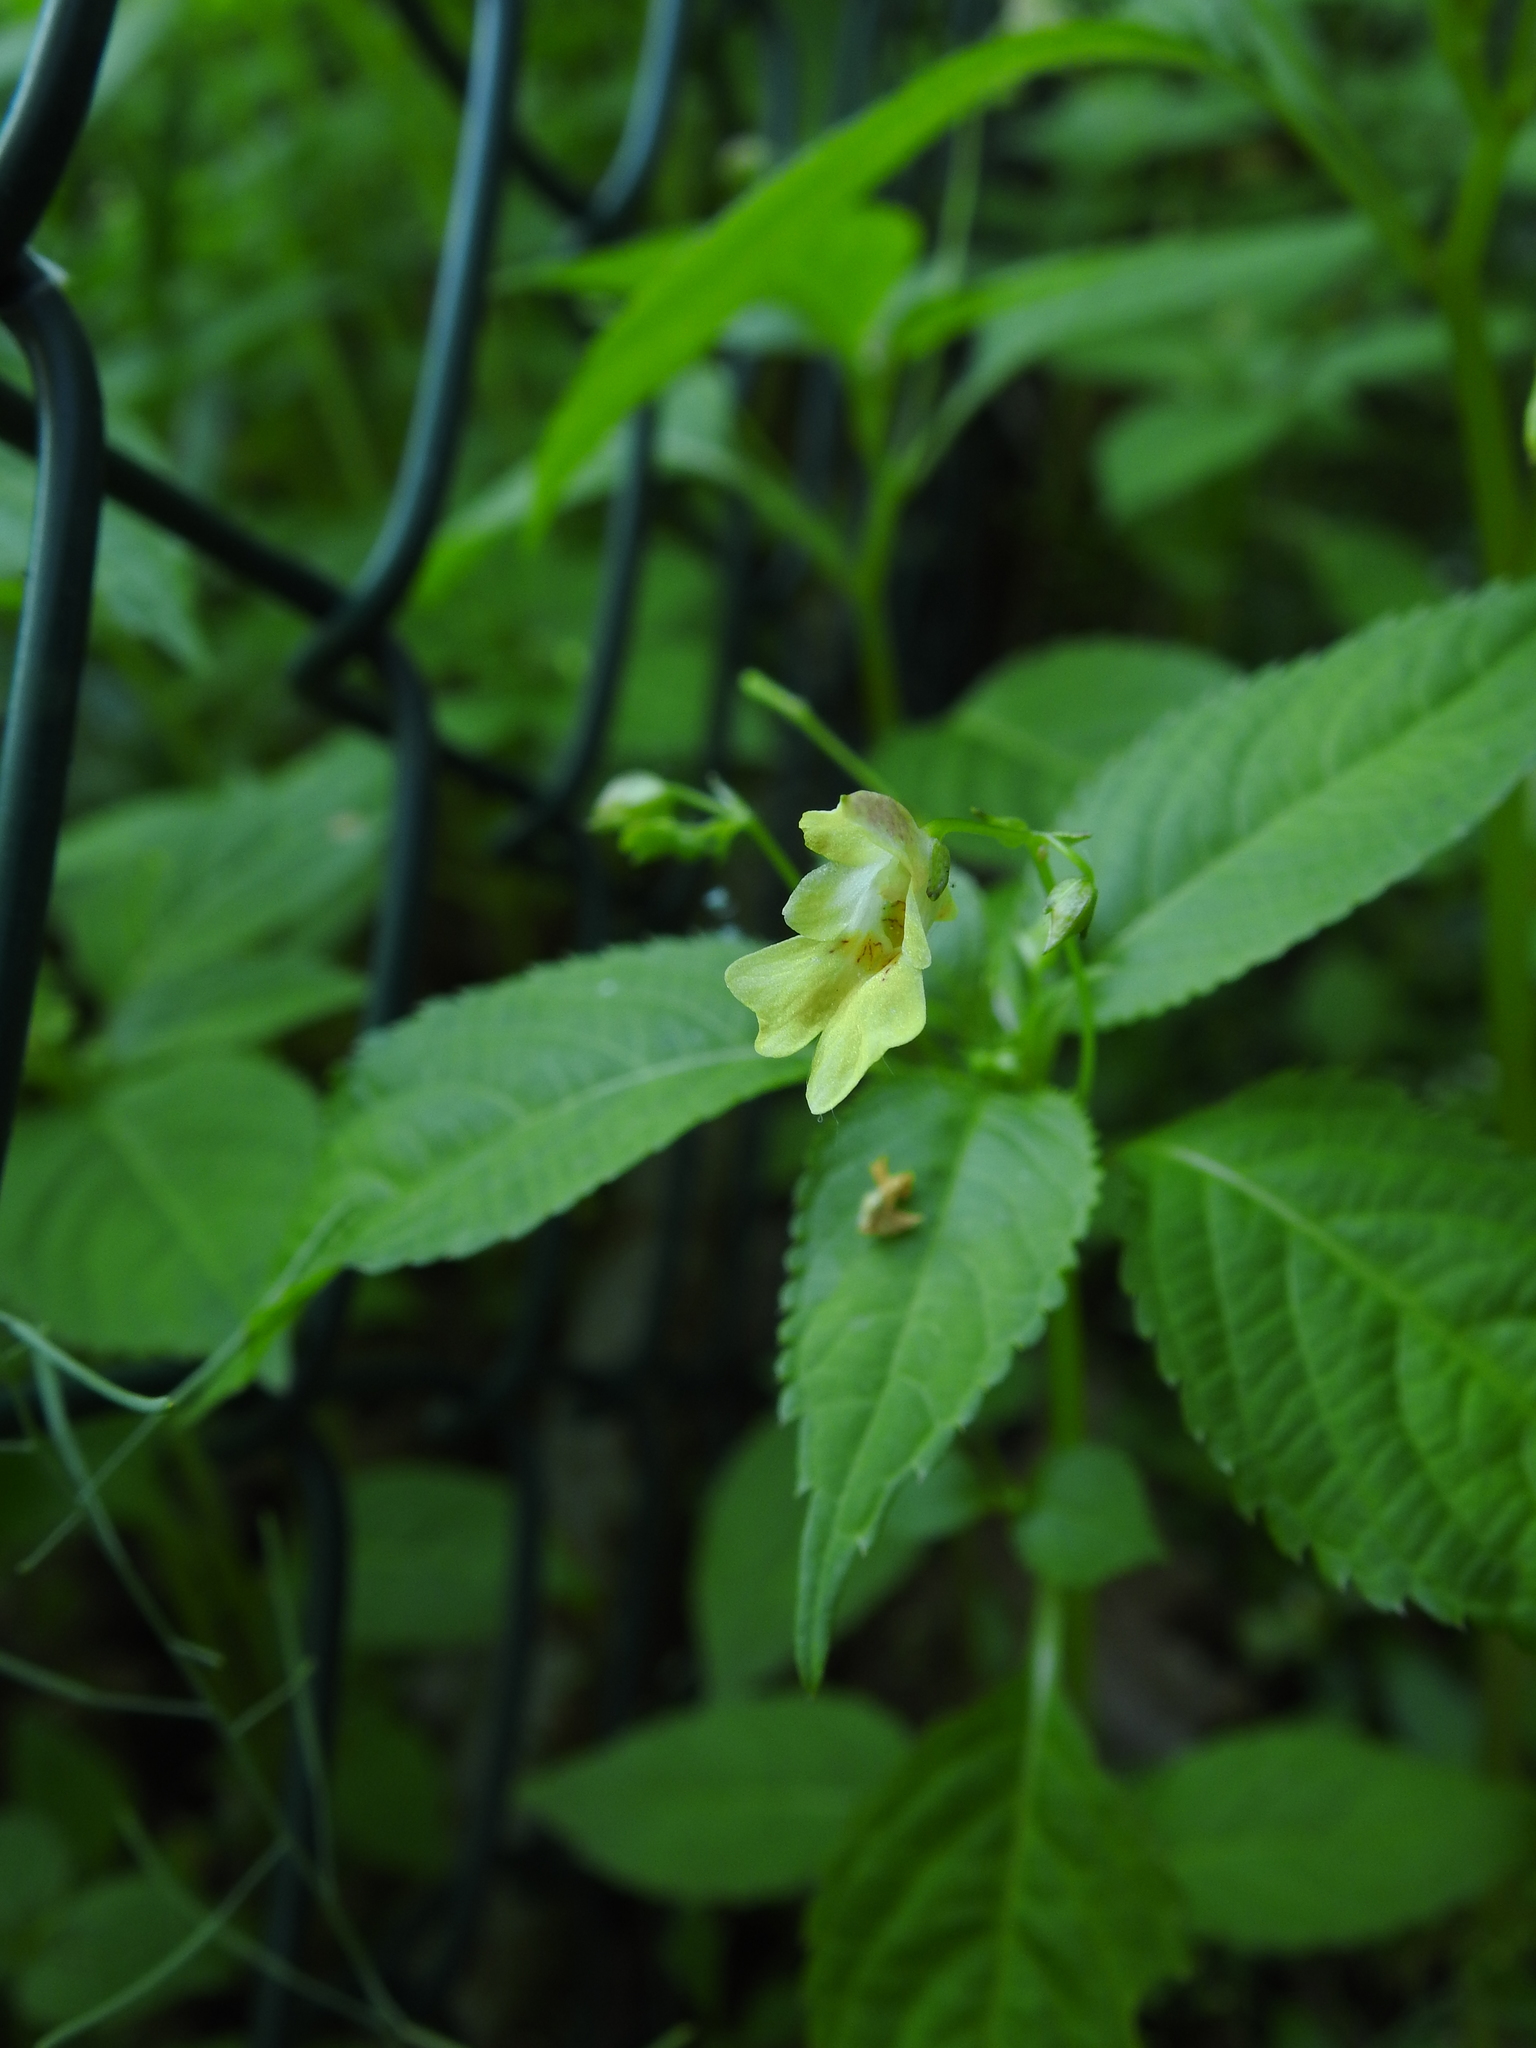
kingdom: Plantae
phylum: Tracheophyta
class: Magnoliopsida
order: Ericales
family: Balsaminaceae
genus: Impatiens
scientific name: Impatiens parviflora
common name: Small balsam
